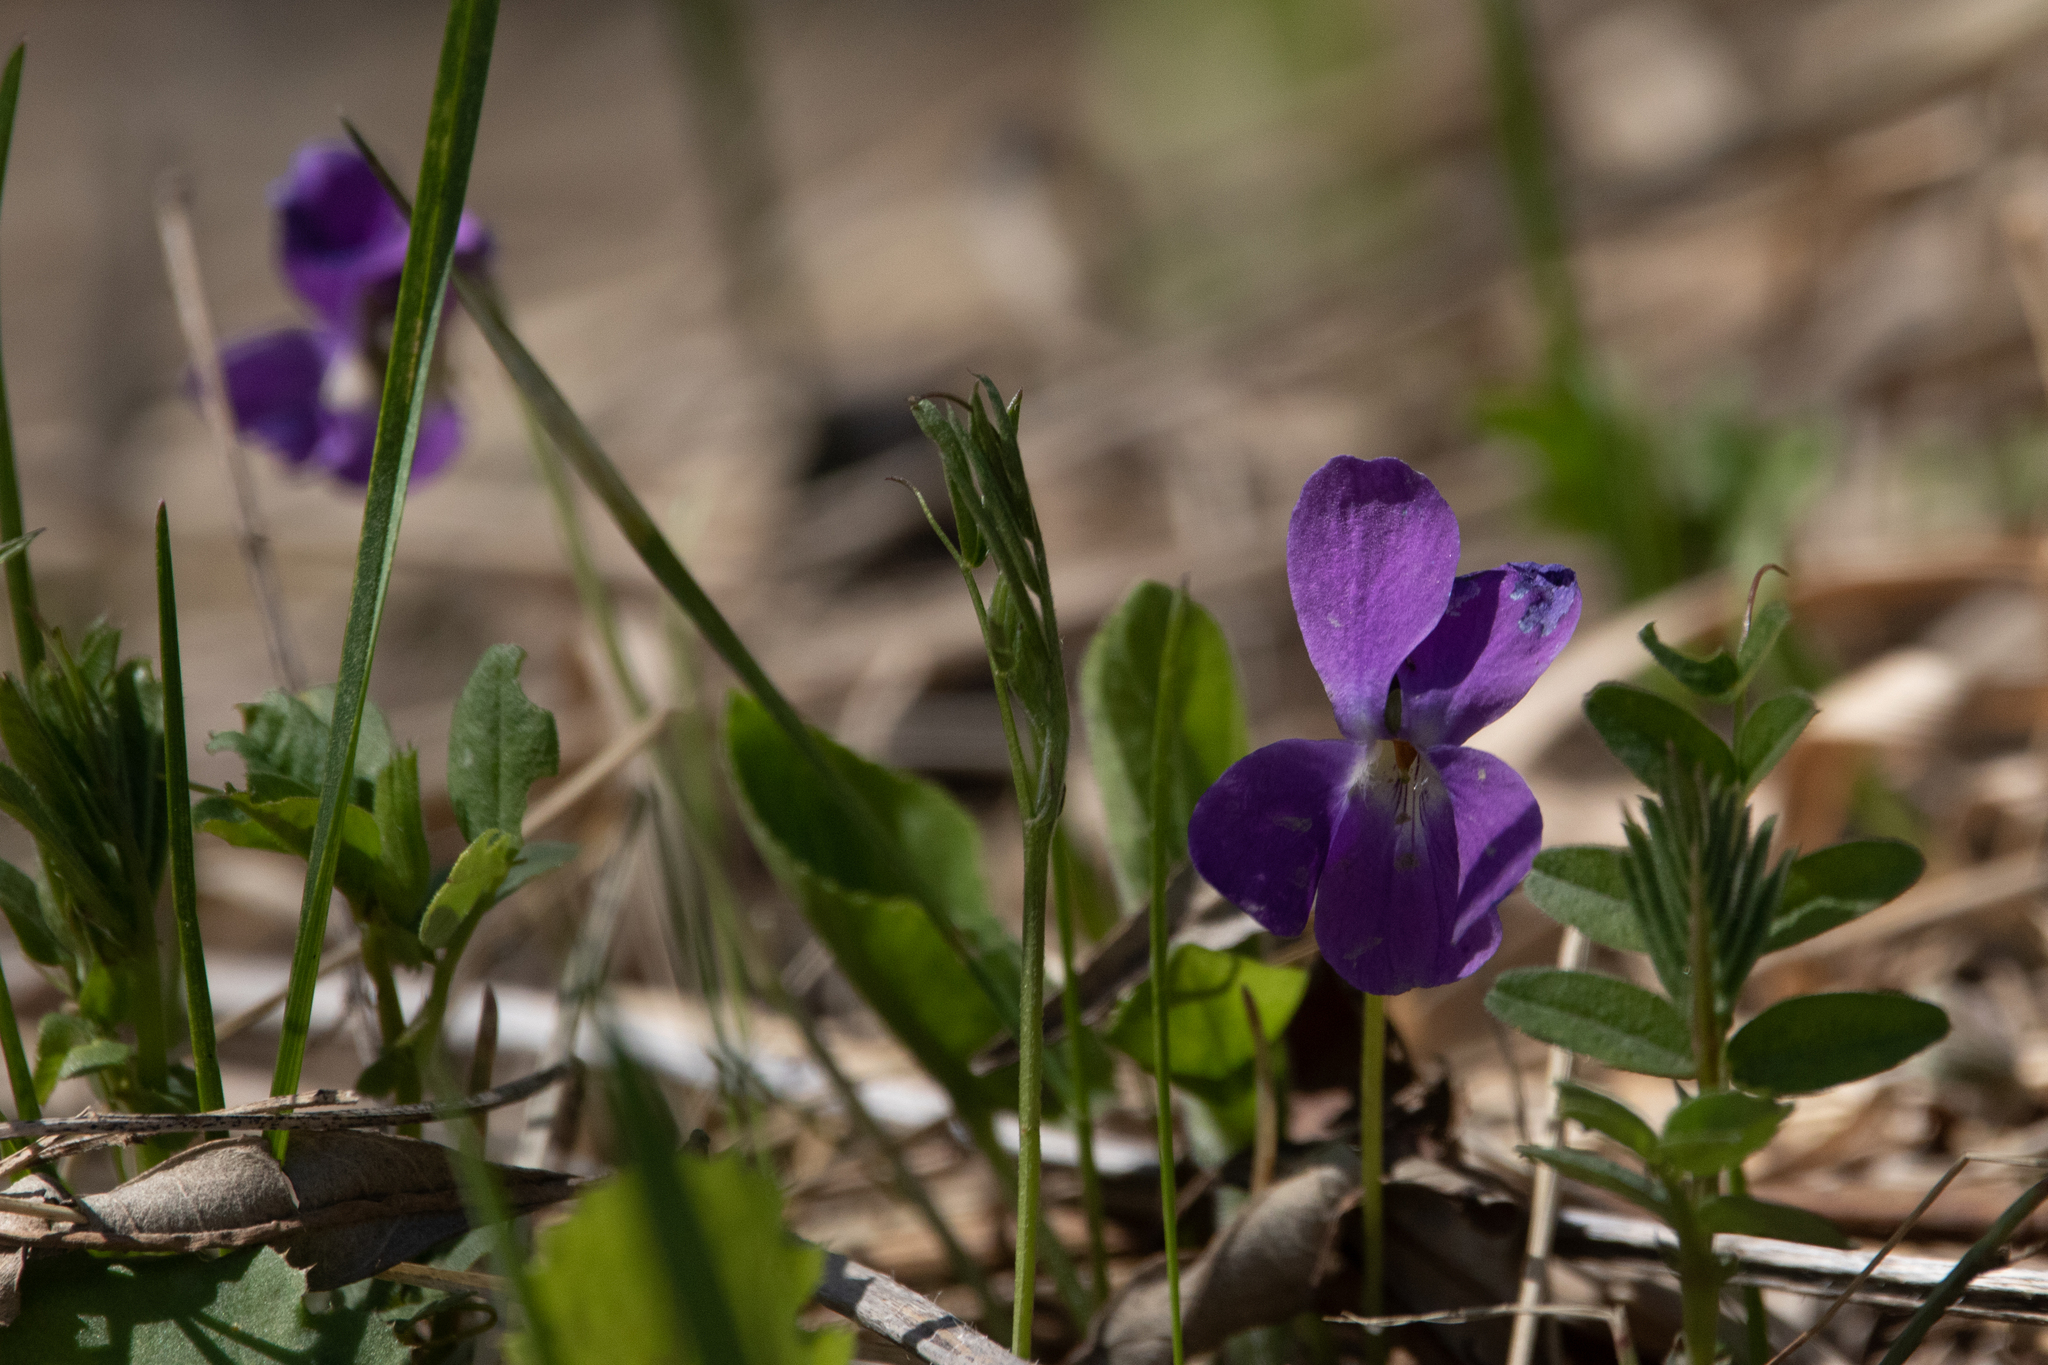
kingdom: Plantae
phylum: Tracheophyta
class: Magnoliopsida
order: Malpighiales
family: Violaceae
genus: Viola
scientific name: Viola hirta
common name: Hairy violet
